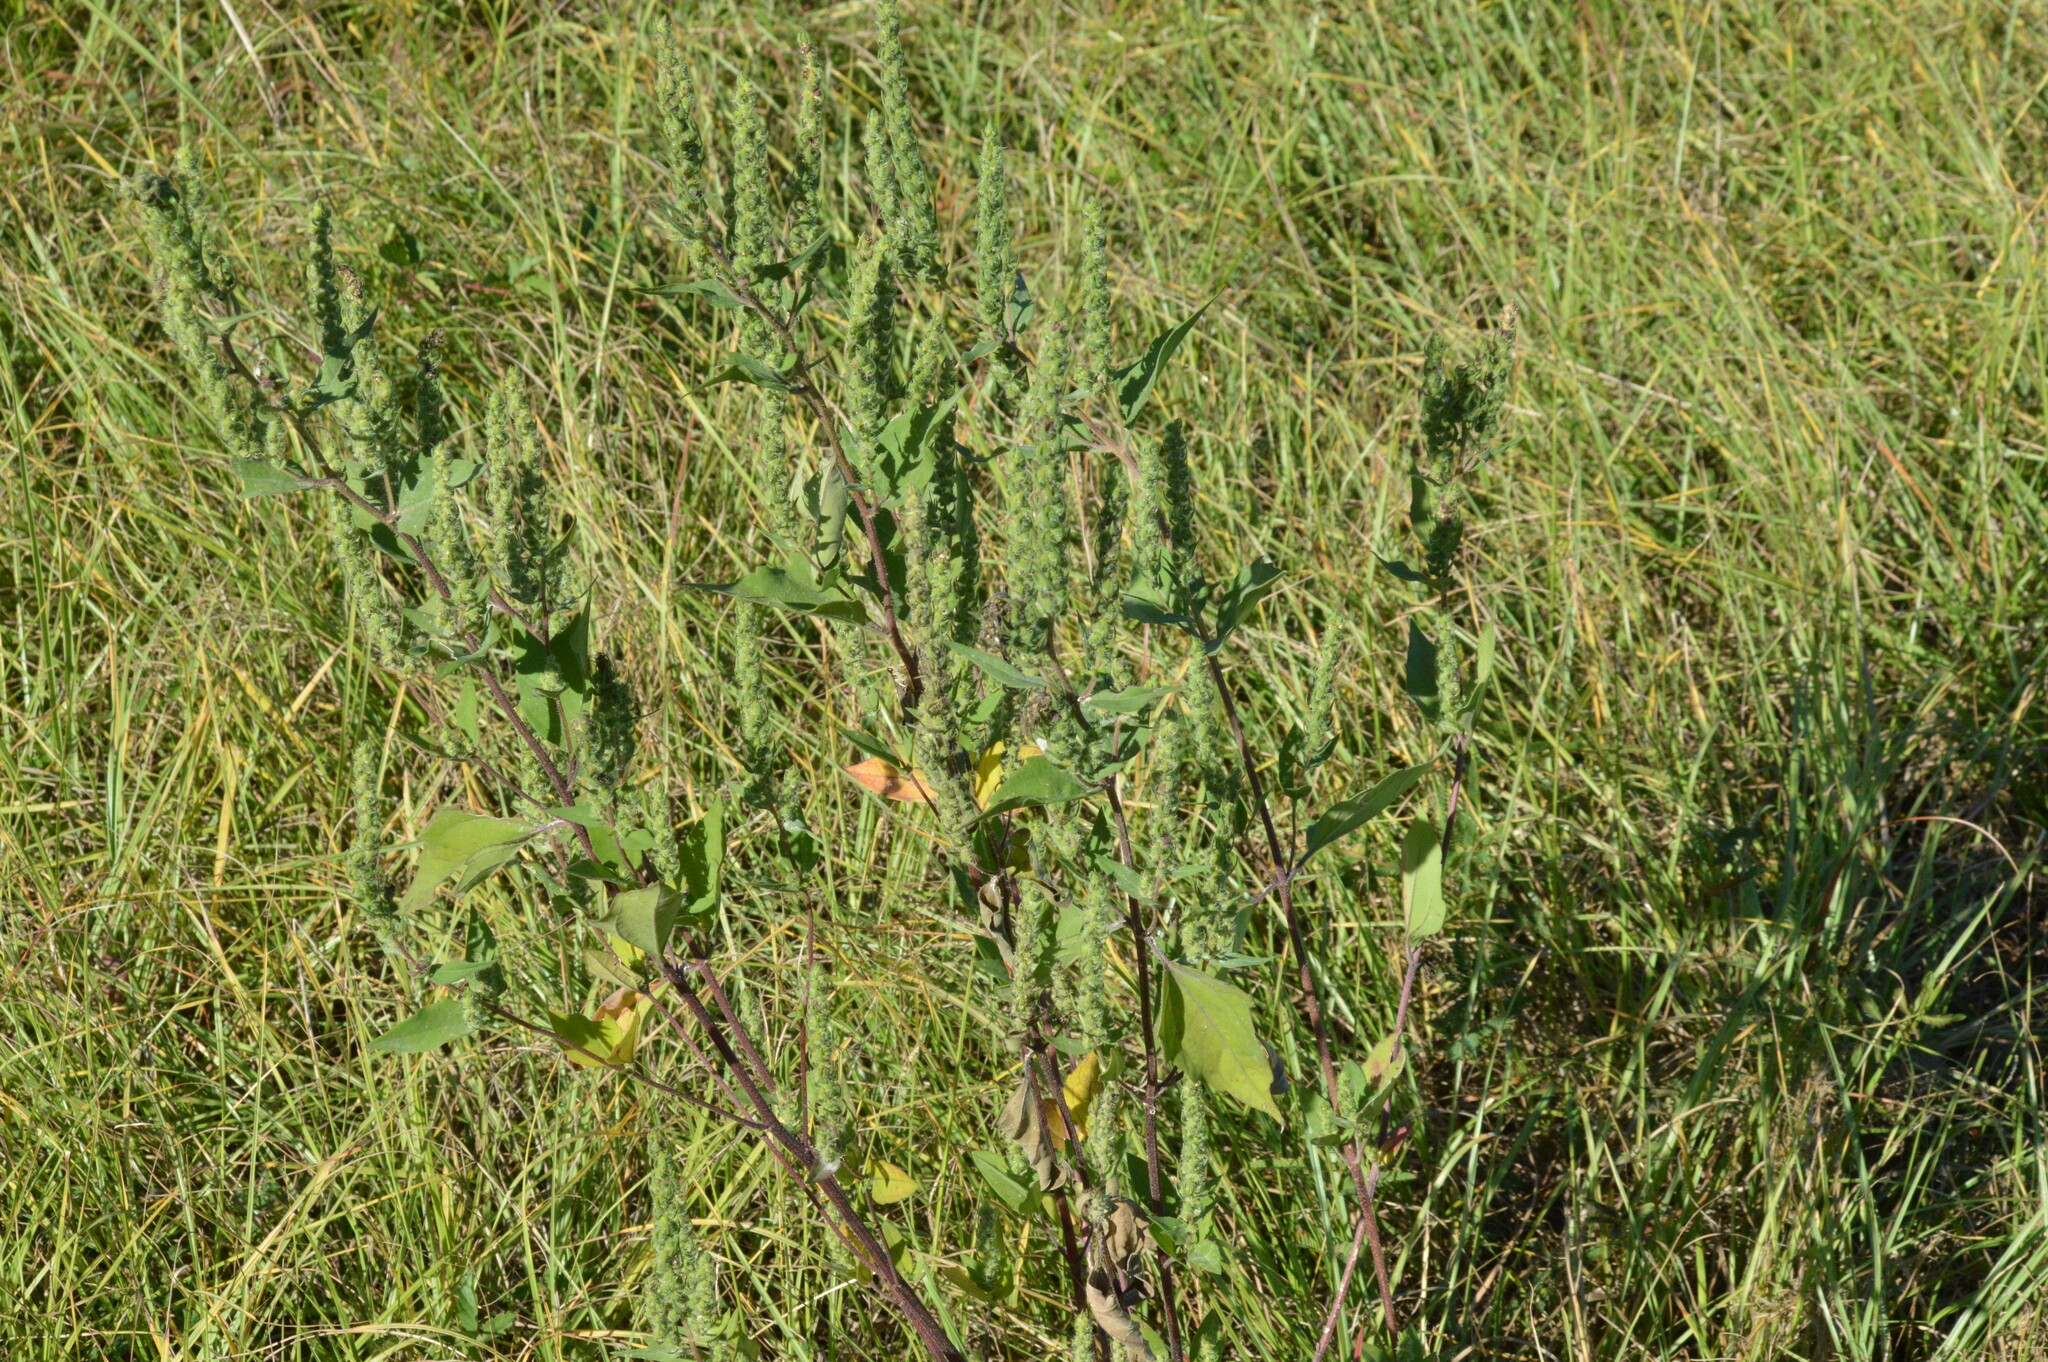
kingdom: Plantae
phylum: Tracheophyta
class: Magnoliopsida
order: Asterales
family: Asteraceae
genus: Iva
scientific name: Iva annua
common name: Marsh-elder
